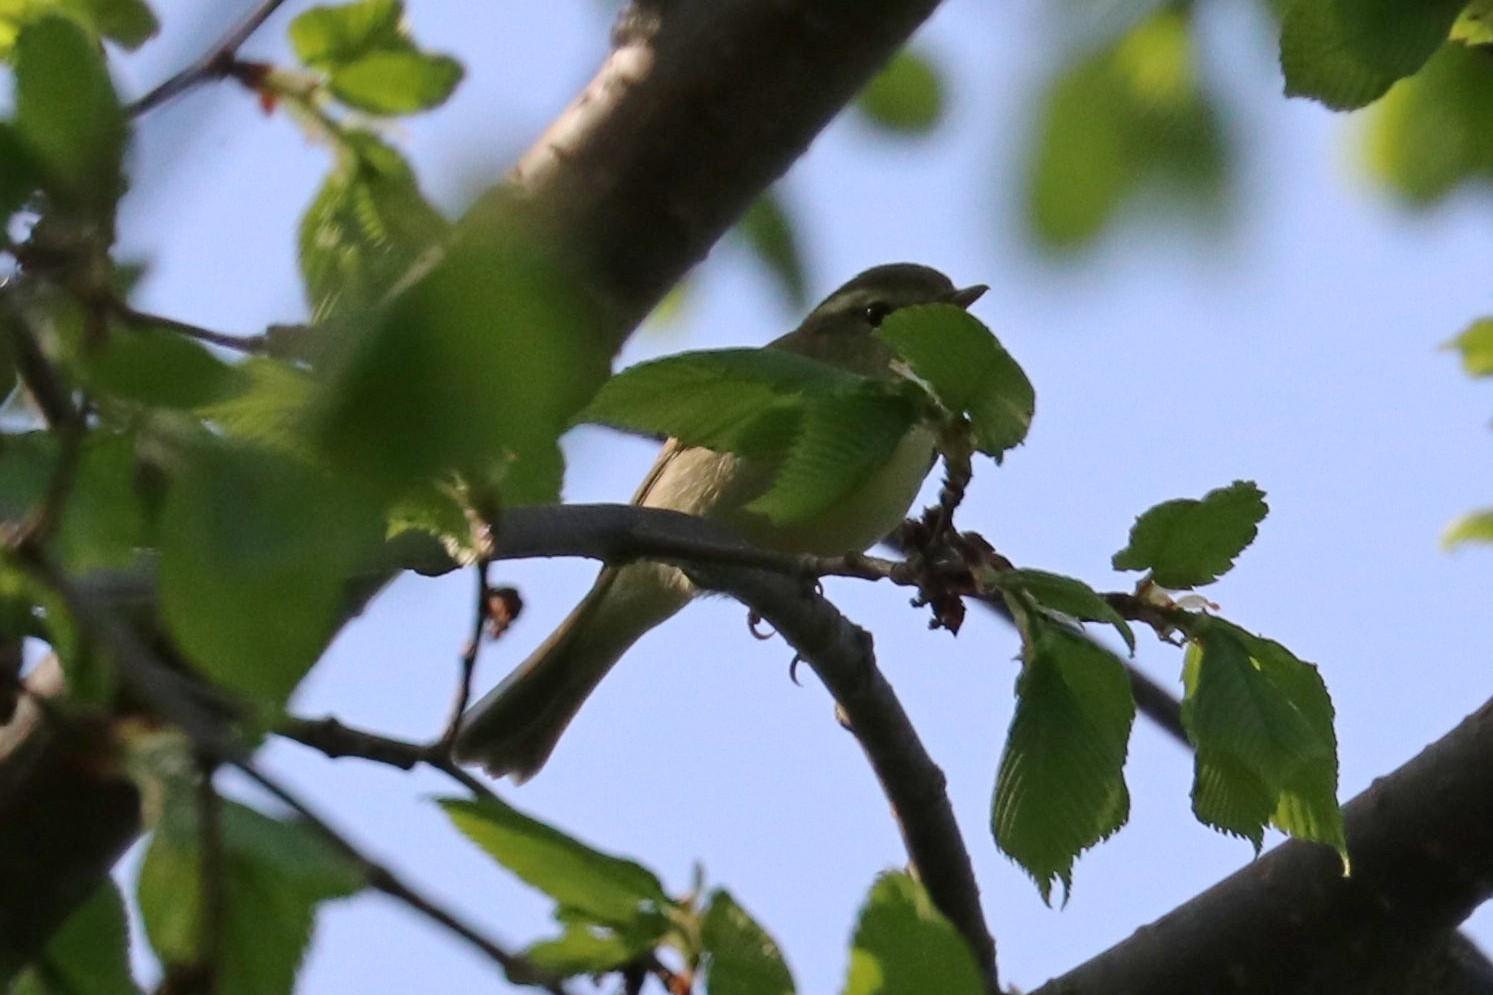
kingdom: Animalia
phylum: Chordata
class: Aves
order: Passeriformes
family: Phylloscopidae
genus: Phylloscopus
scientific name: Phylloscopus trochiloides
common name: Greenish warbler
